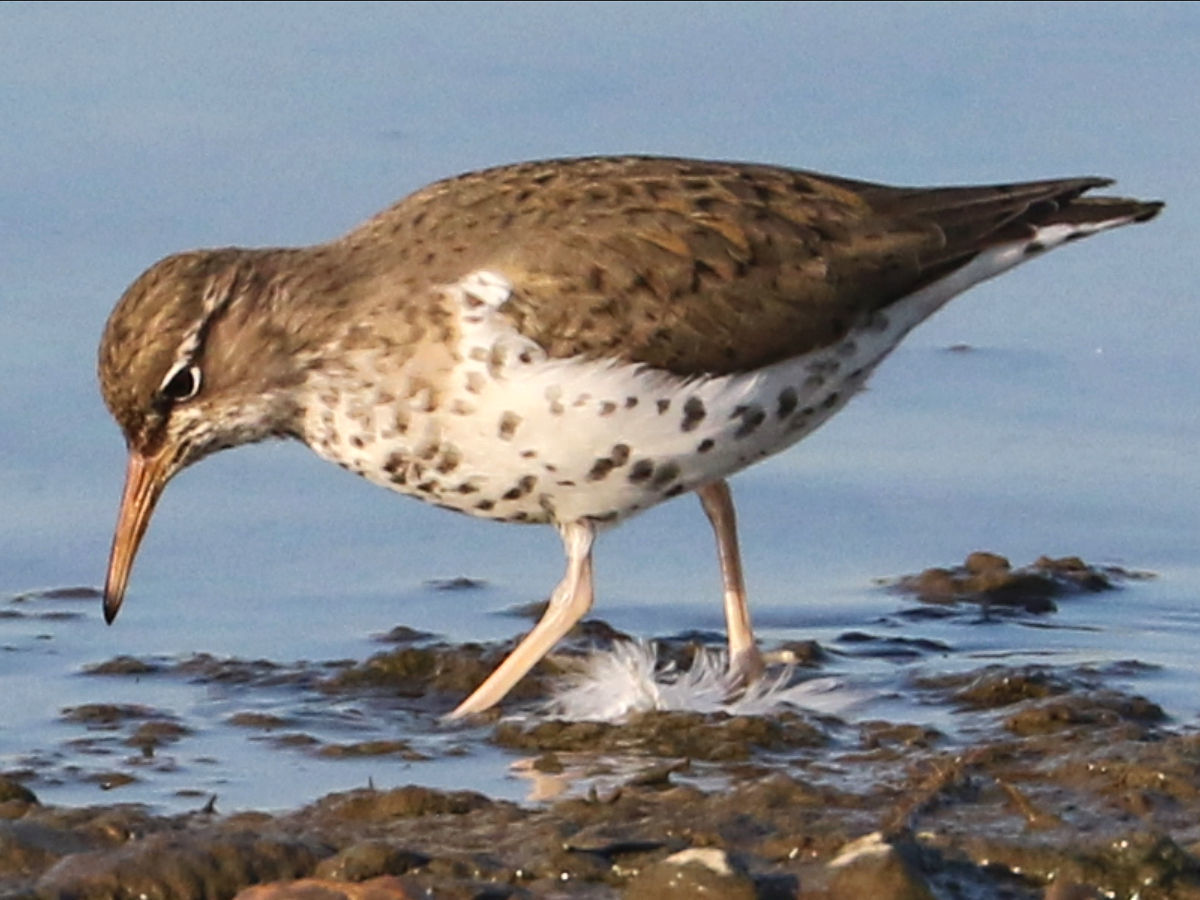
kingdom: Animalia
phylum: Chordata
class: Aves
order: Charadriiformes
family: Scolopacidae
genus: Actitis
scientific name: Actitis macularius
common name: Spotted sandpiper
